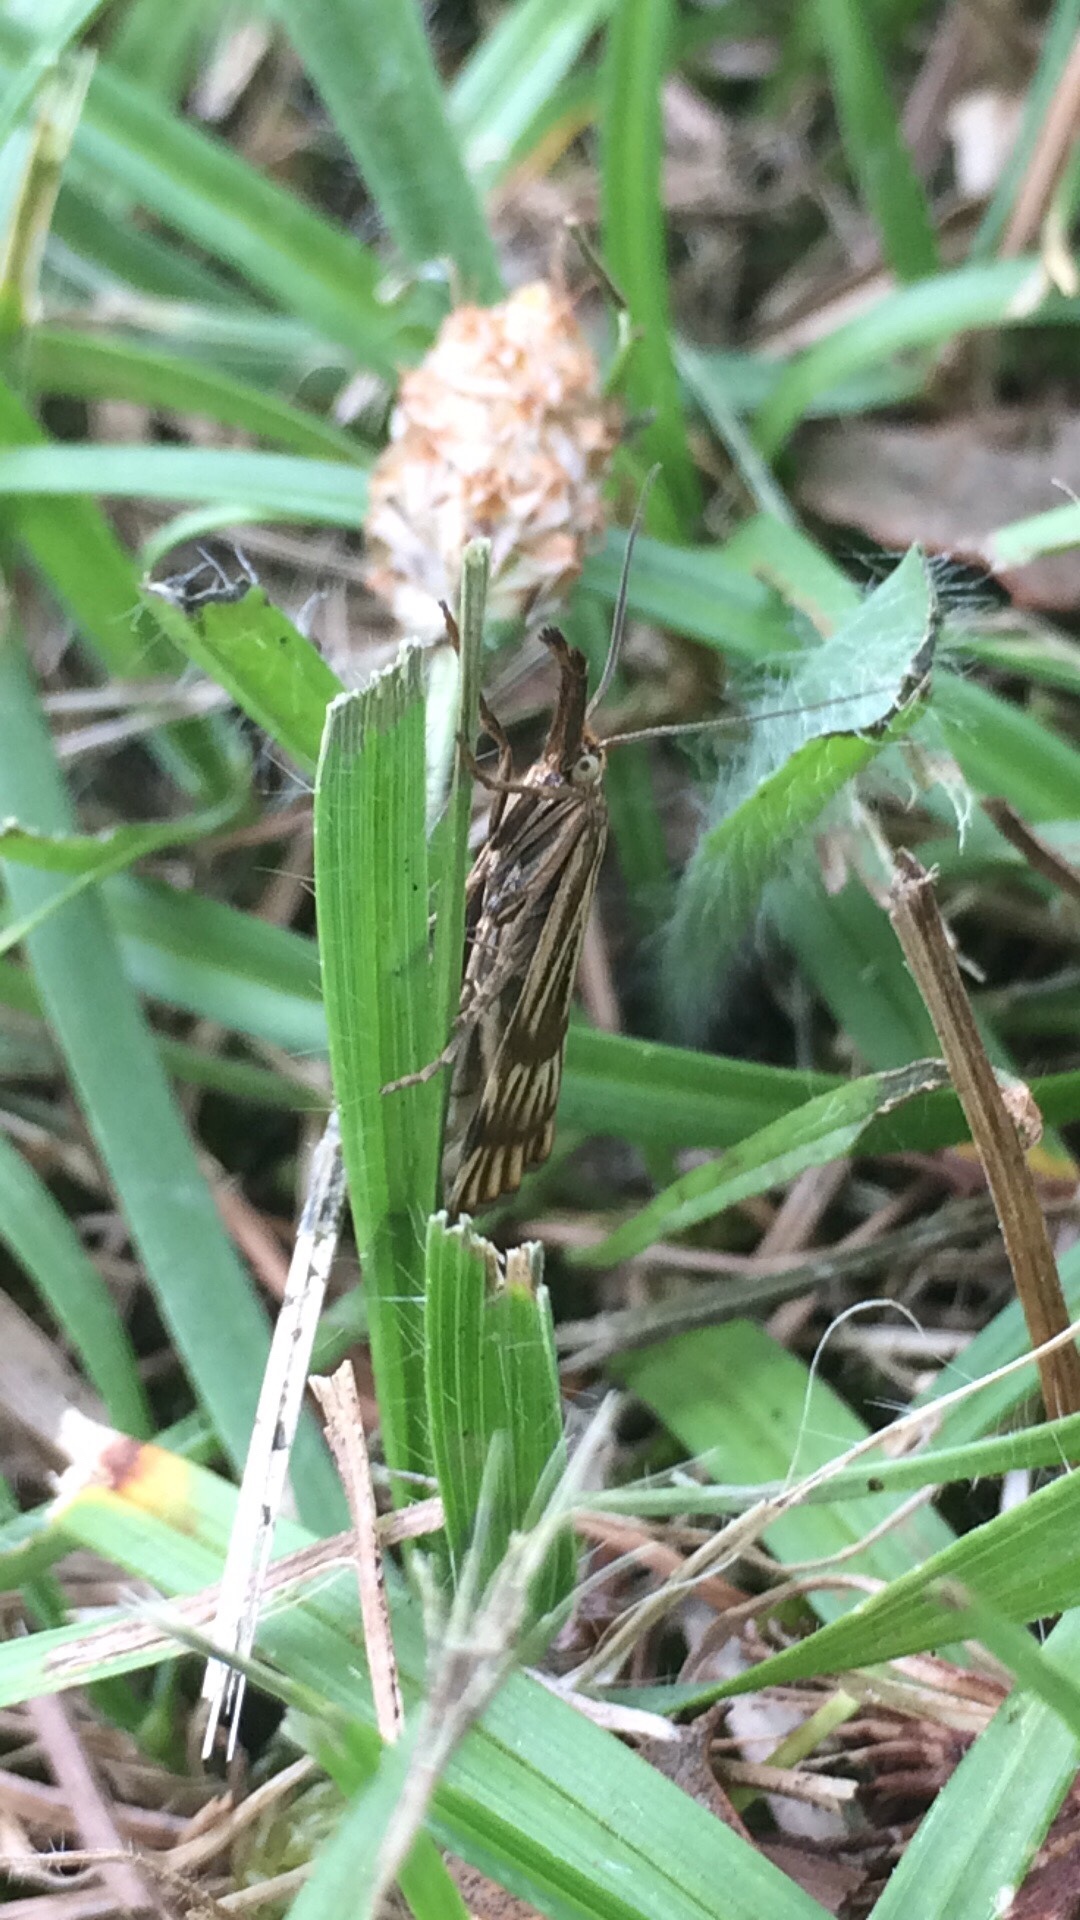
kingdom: Animalia
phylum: Arthropoda
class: Insecta
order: Lepidoptera
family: Crambidae
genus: Chrysocrambus
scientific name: Chrysocrambus linetella
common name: Orange-bar grass-veneer
